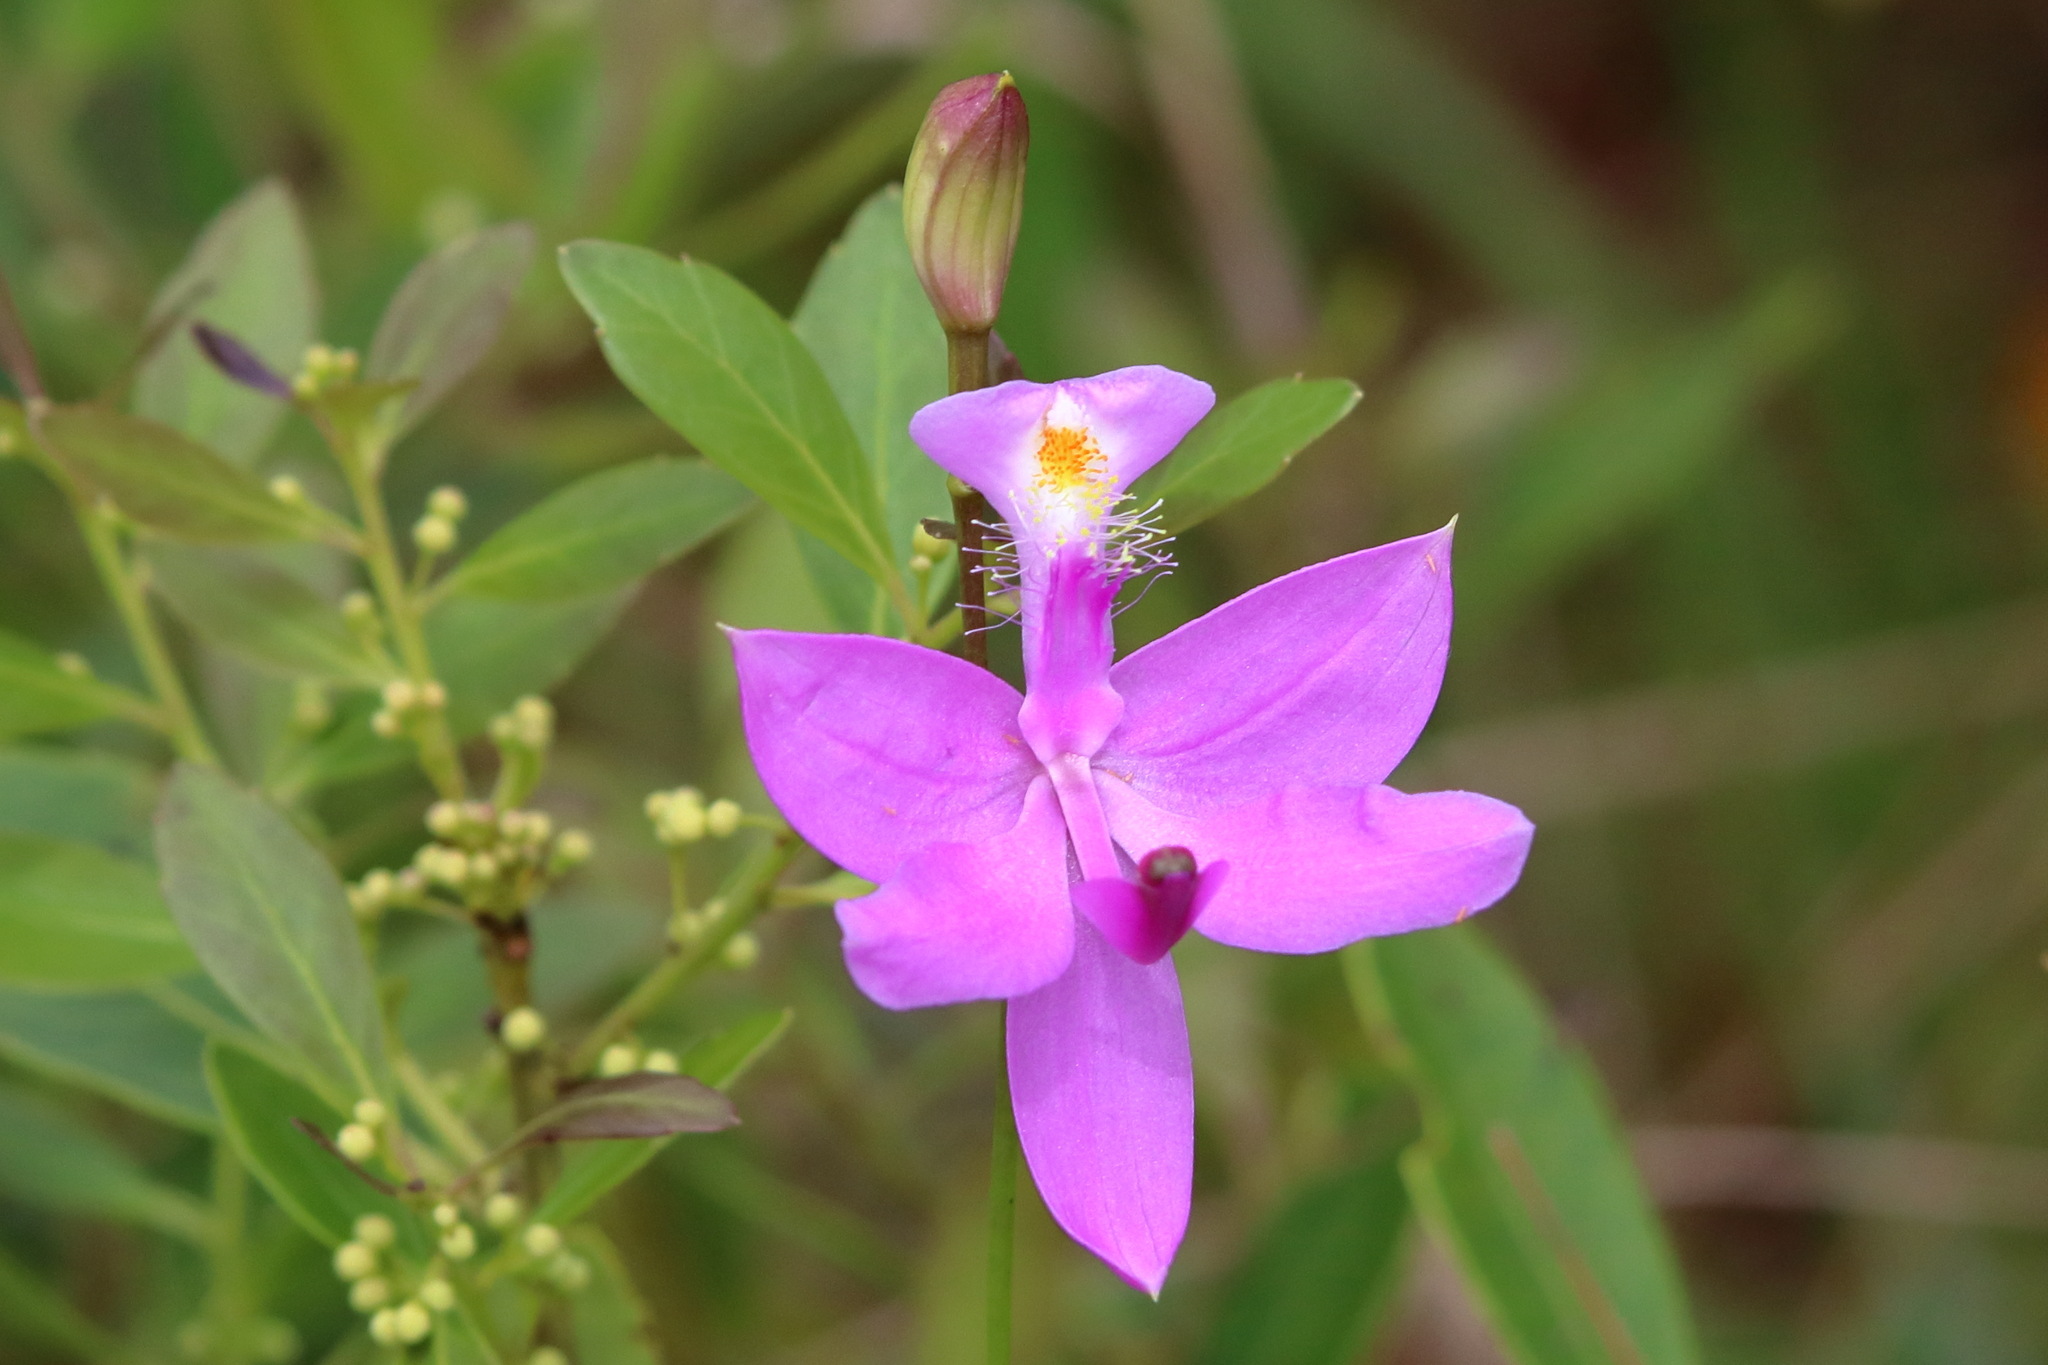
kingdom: Plantae
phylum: Tracheophyta
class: Liliopsida
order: Asparagales
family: Orchidaceae
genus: Calopogon
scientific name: Calopogon tuberosus
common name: Grass-pink
